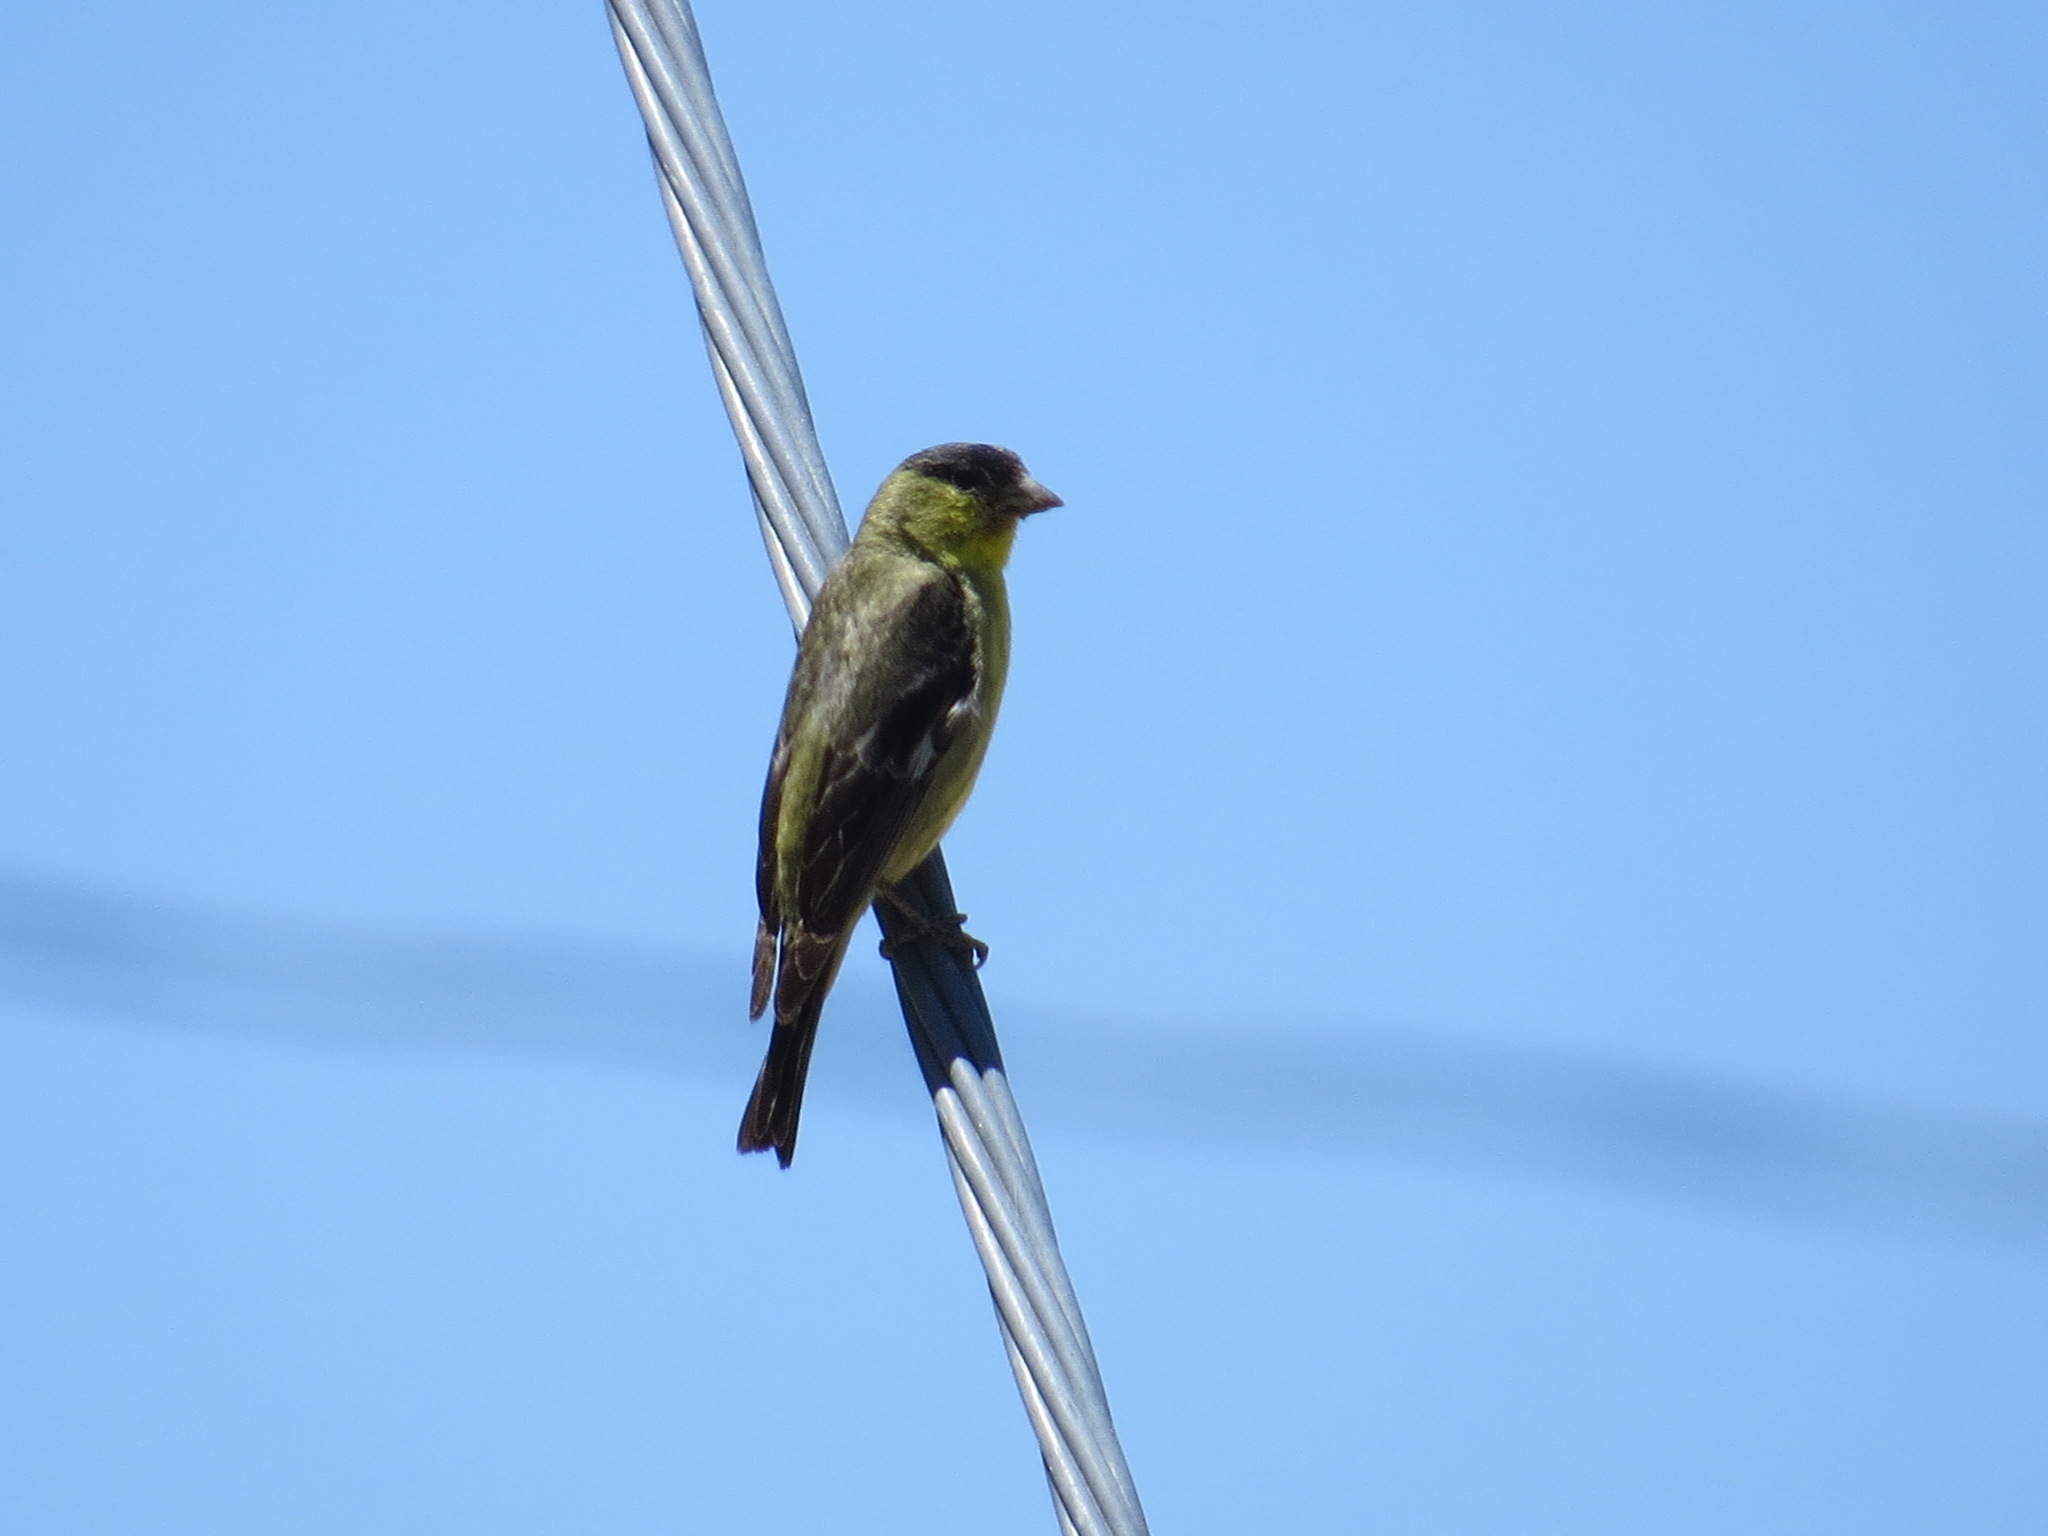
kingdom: Animalia
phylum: Chordata
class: Aves
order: Passeriformes
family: Fringillidae
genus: Spinus
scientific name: Spinus psaltria
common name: Lesser goldfinch
